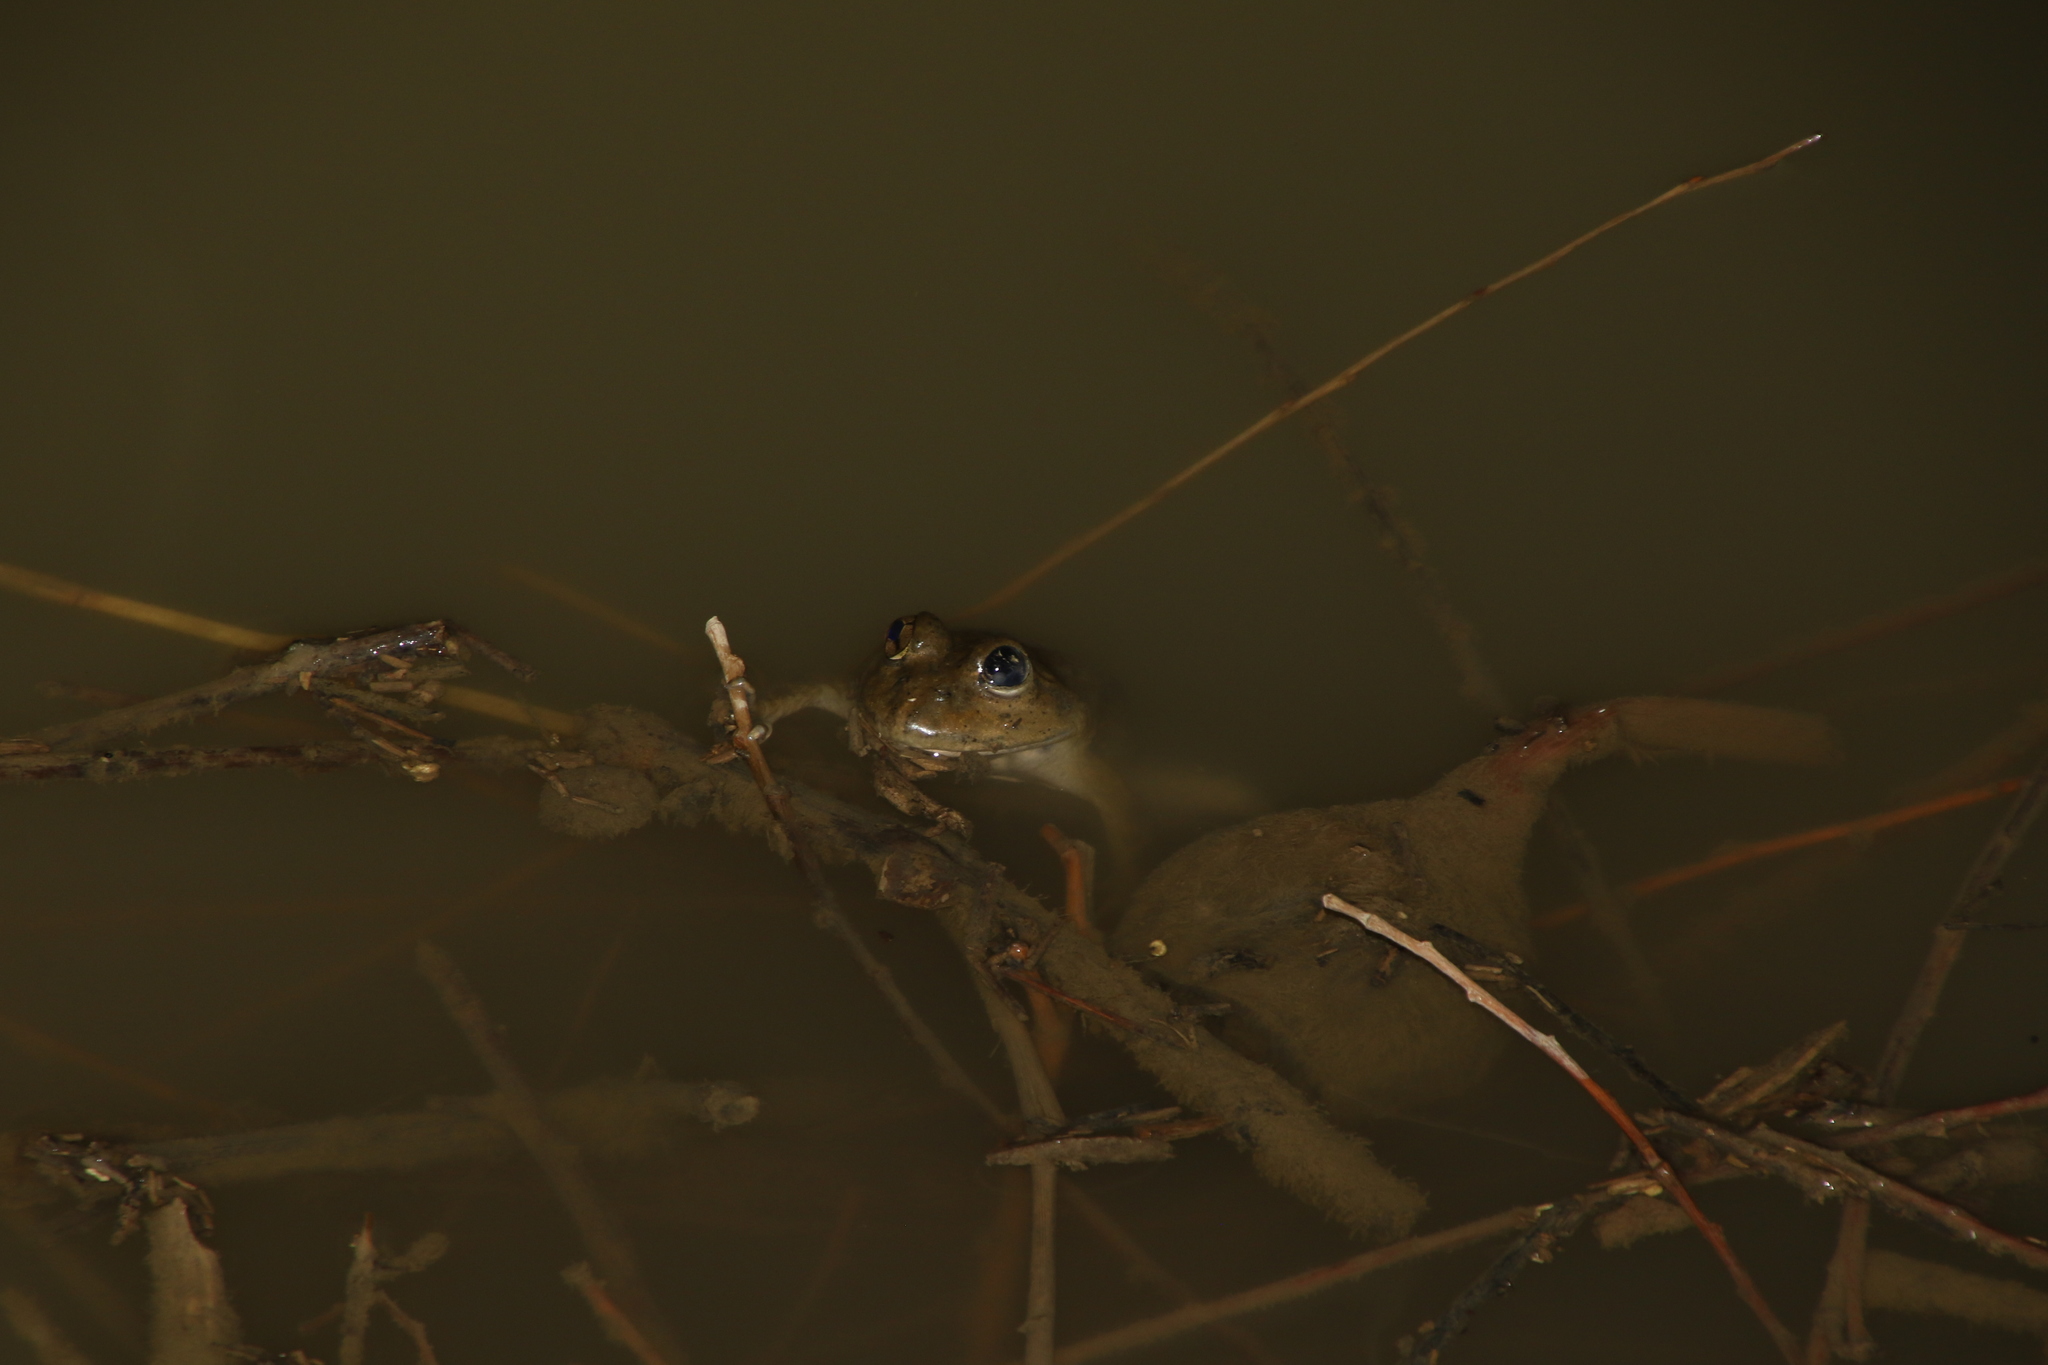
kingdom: Animalia
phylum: Chordata
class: Amphibia
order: Anura
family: Dicroglossidae
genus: Chrysopaa
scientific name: Chrysopaa sternosignata
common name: Murray's frog
